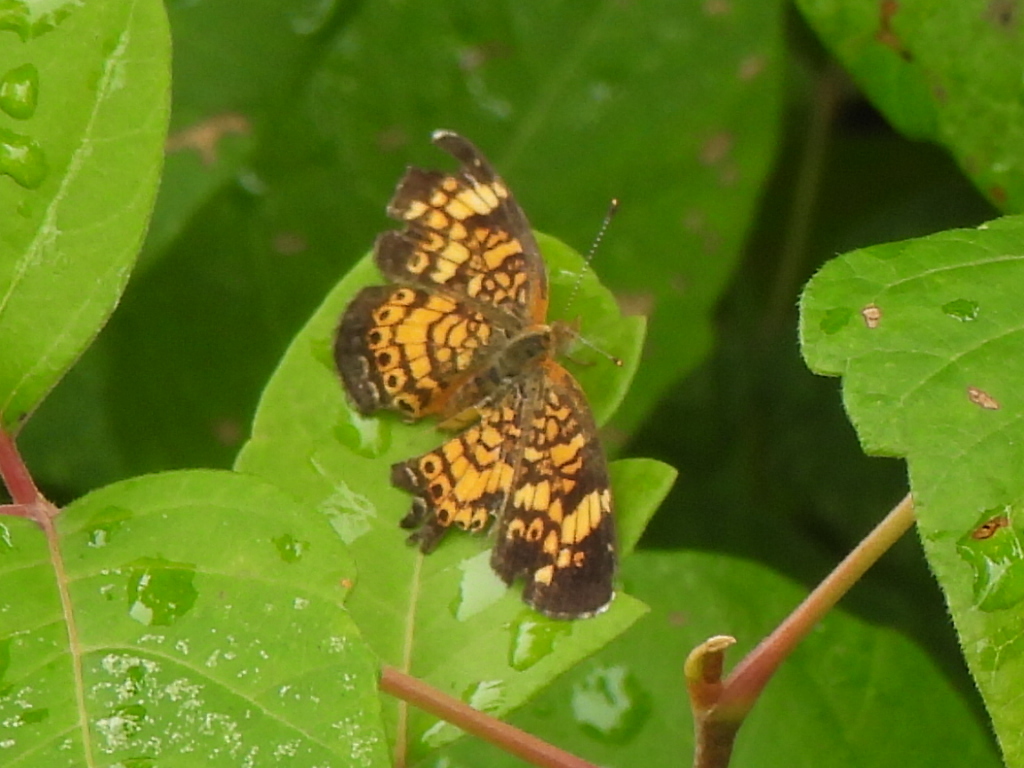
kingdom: Animalia
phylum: Arthropoda
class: Insecta
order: Lepidoptera
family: Nymphalidae
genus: Phyciodes
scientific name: Phyciodes tharos
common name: Pearl crescent
